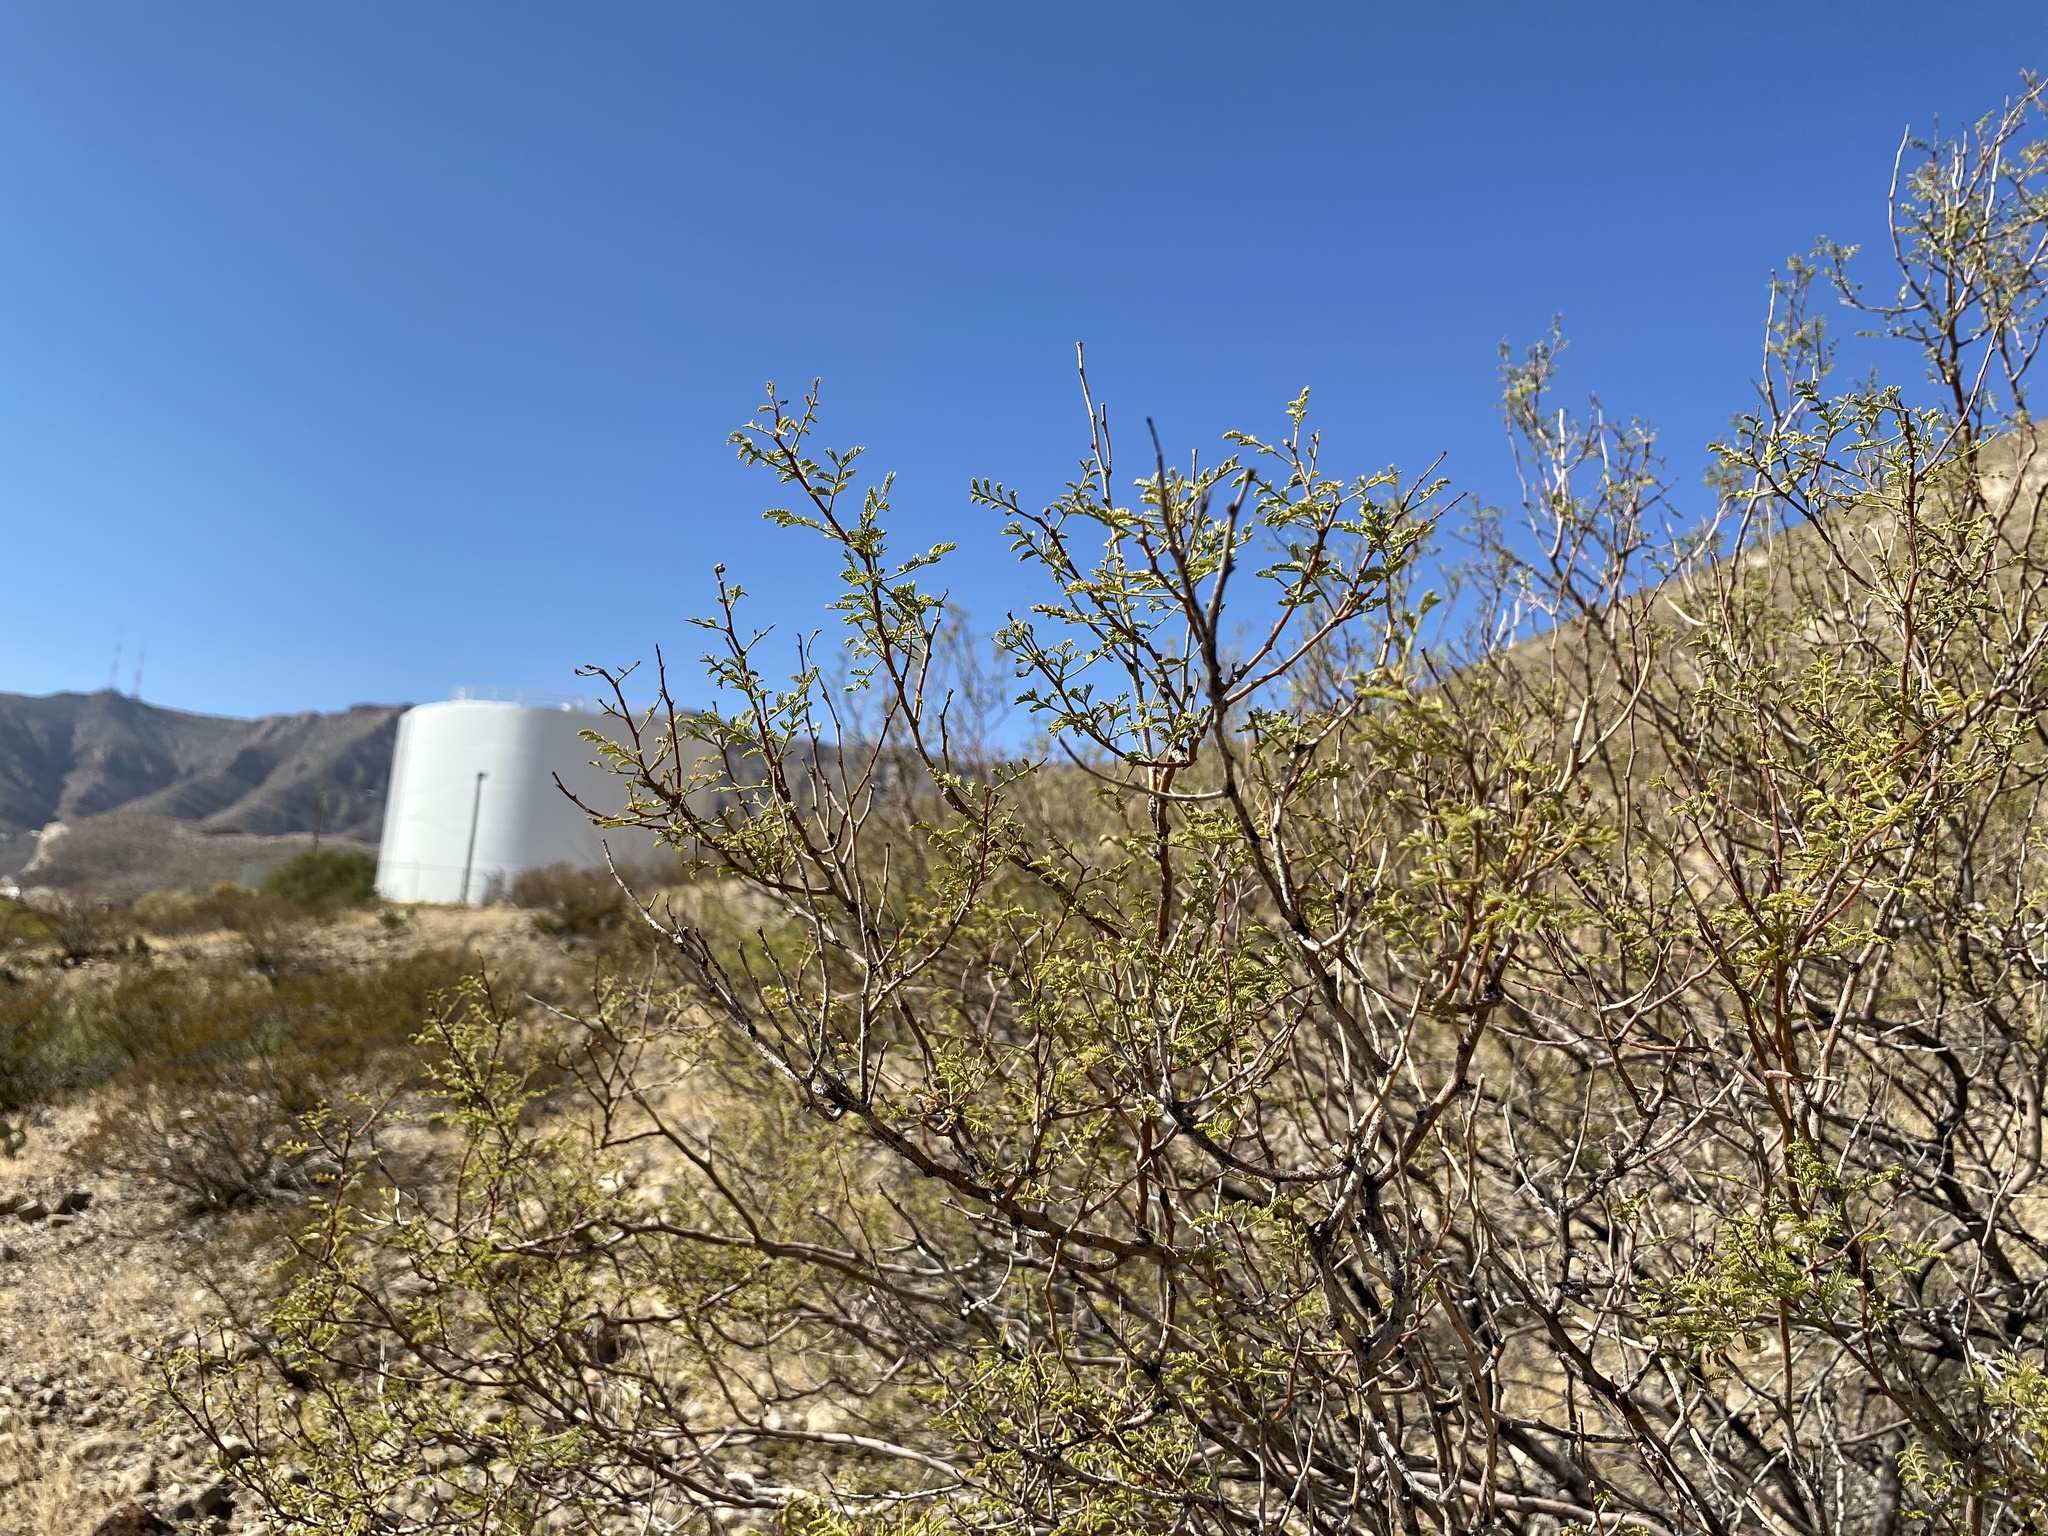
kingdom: Plantae
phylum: Tracheophyta
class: Magnoliopsida
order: Fabales
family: Fabaceae
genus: Vachellia
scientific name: Vachellia constricta
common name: Mescat acacia
